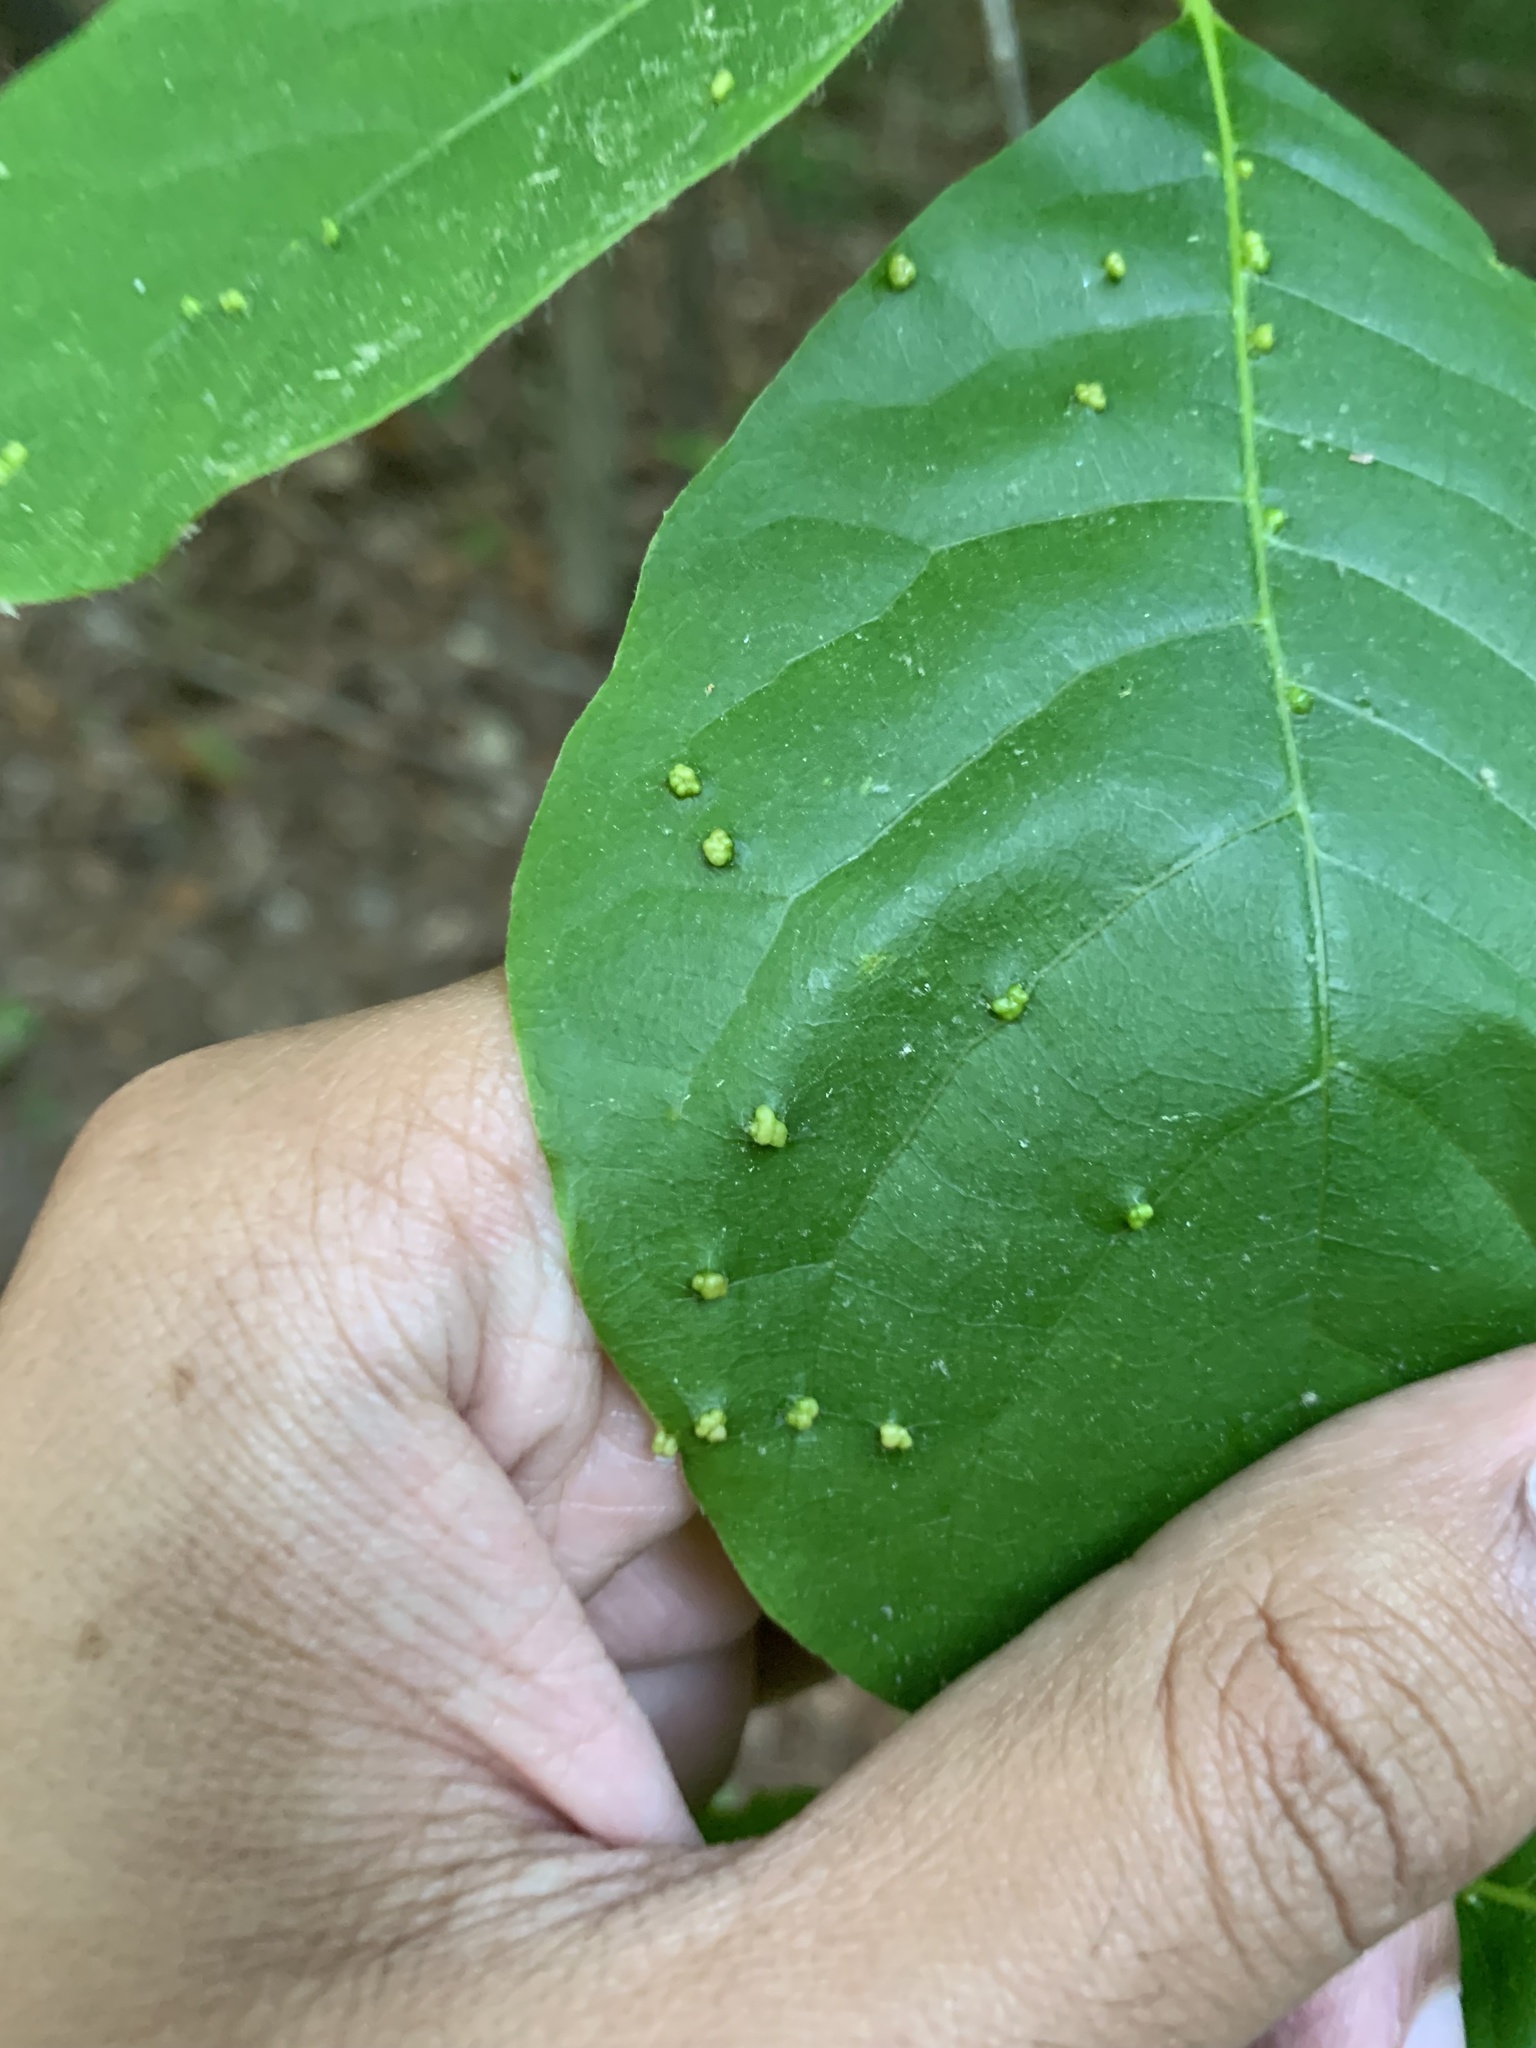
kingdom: Animalia
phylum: Arthropoda
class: Arachnida
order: Trombidiformes
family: Eriophyidae
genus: Aceria
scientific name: Aceria
